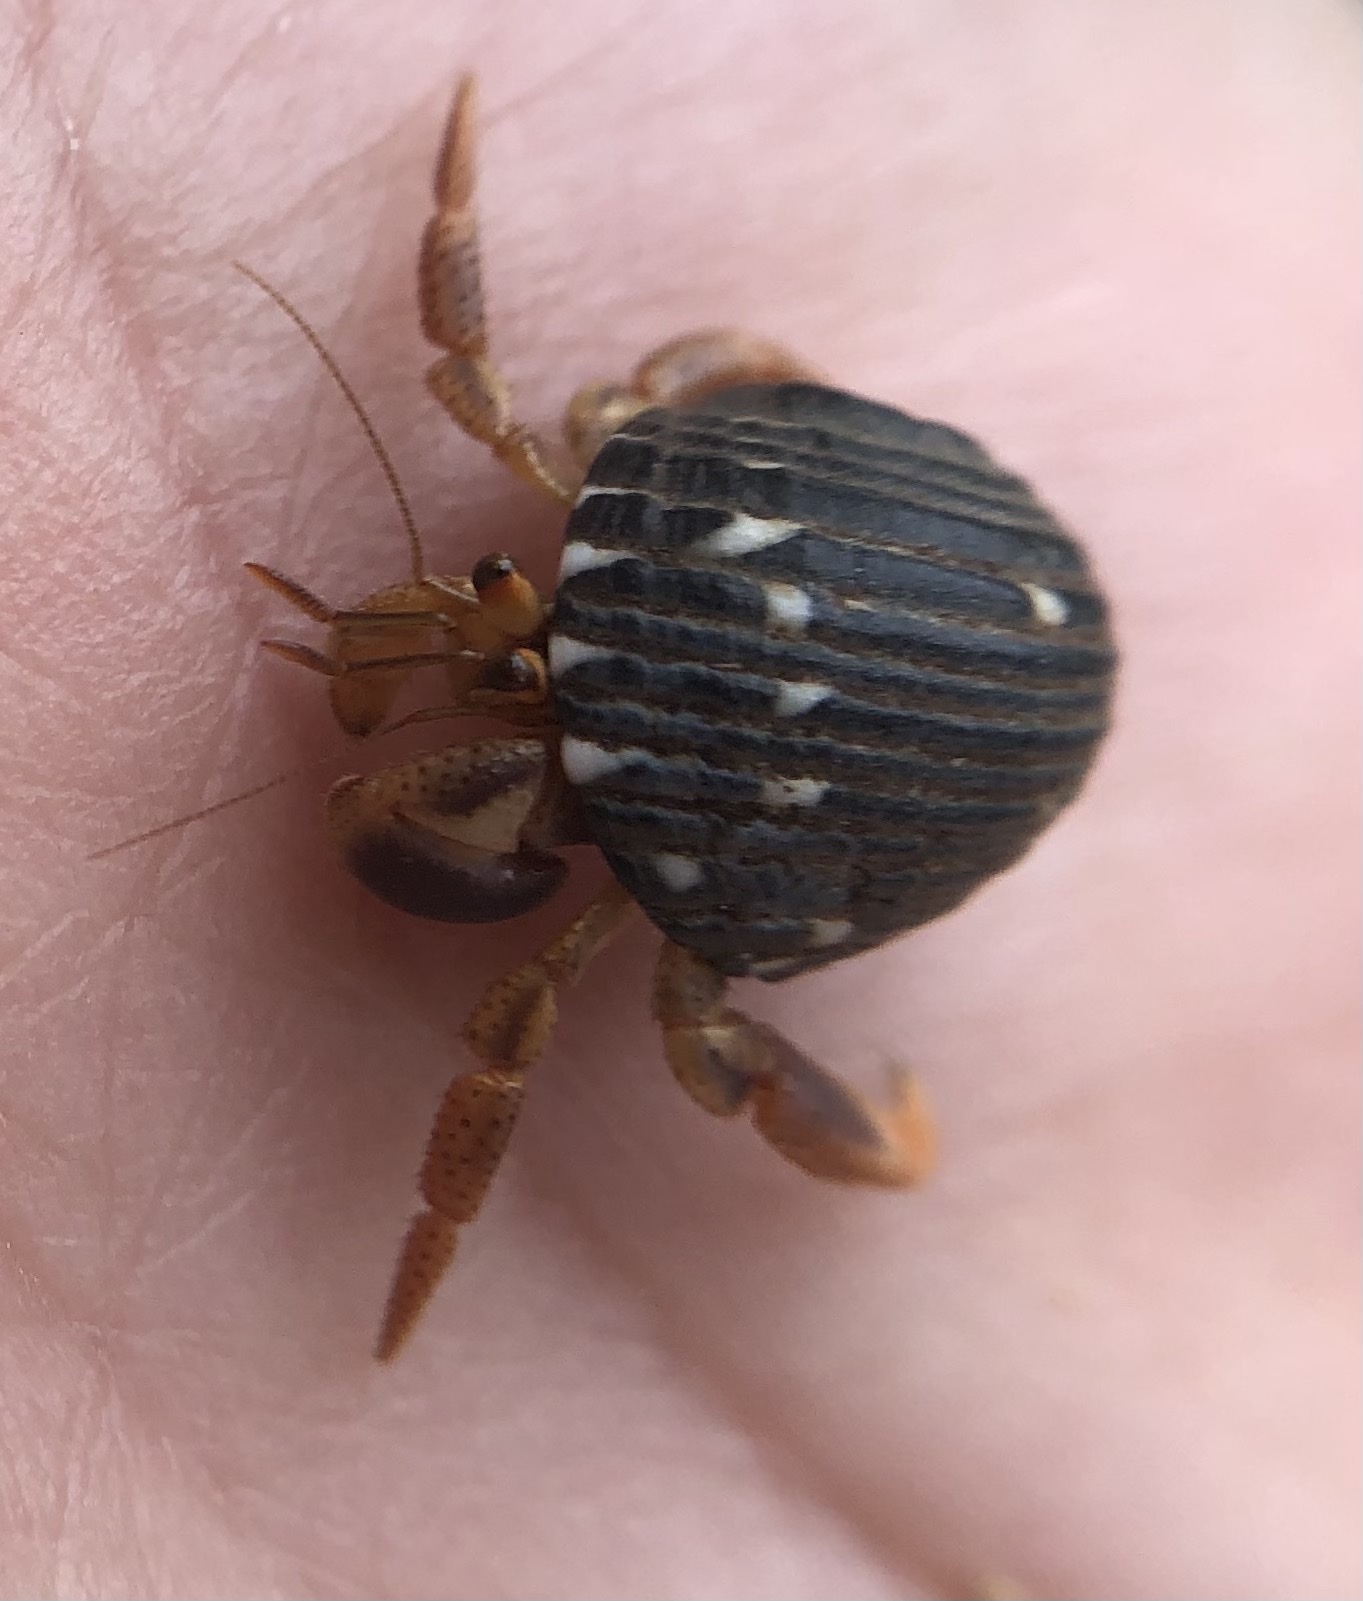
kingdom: Animalia
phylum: Arthropoda
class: Malacostraca
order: Decapoda
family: Coenobitidae
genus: Coenobita
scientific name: Coenobita clypeatus
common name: Caribbean hermit crab
